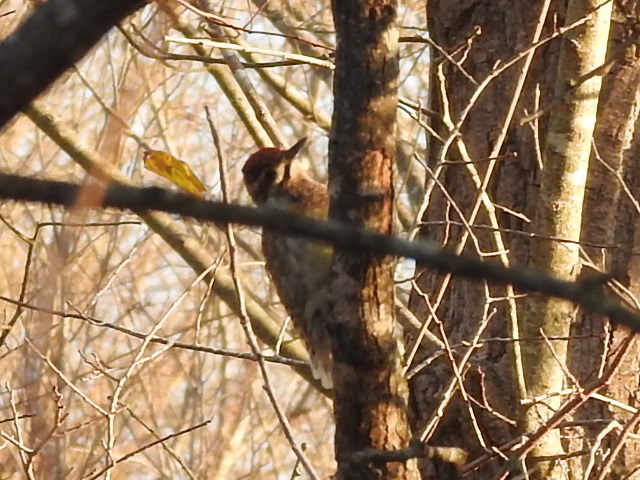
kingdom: Animalia
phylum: Chordata
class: Aves
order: Piciformes
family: Picidae
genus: Sphyrapicus
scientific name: Sphyrapicus varius
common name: Yellow-bellied sapsucker
